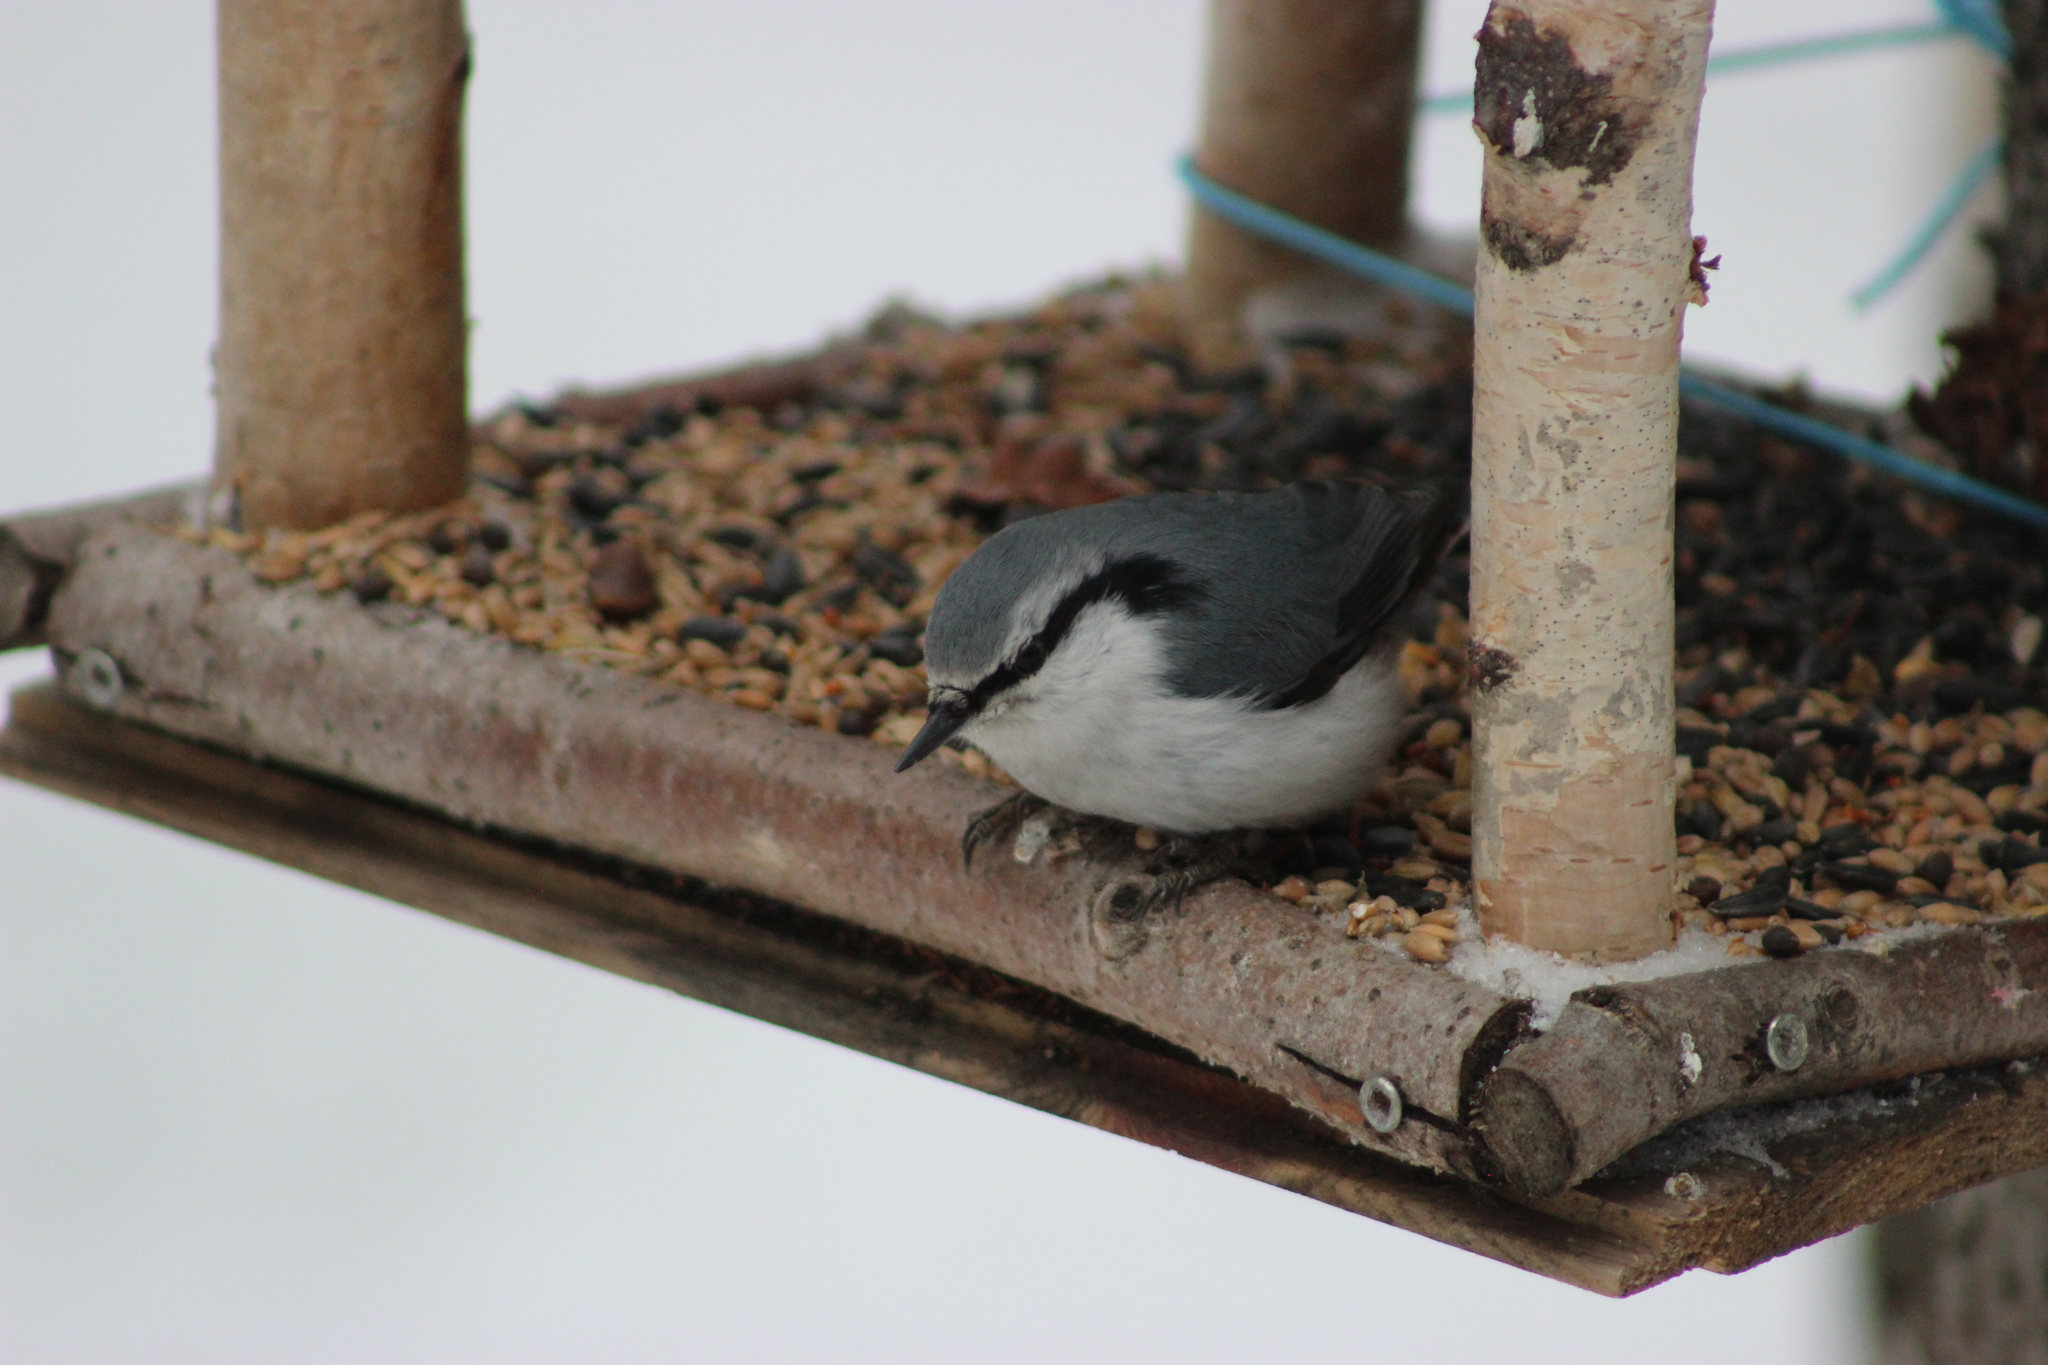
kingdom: Animalia
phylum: Chordata
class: Aves
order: Passeriformes
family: Sittidae
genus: Sitta
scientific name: Sitta europaea
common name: Eurasian nuthatch
